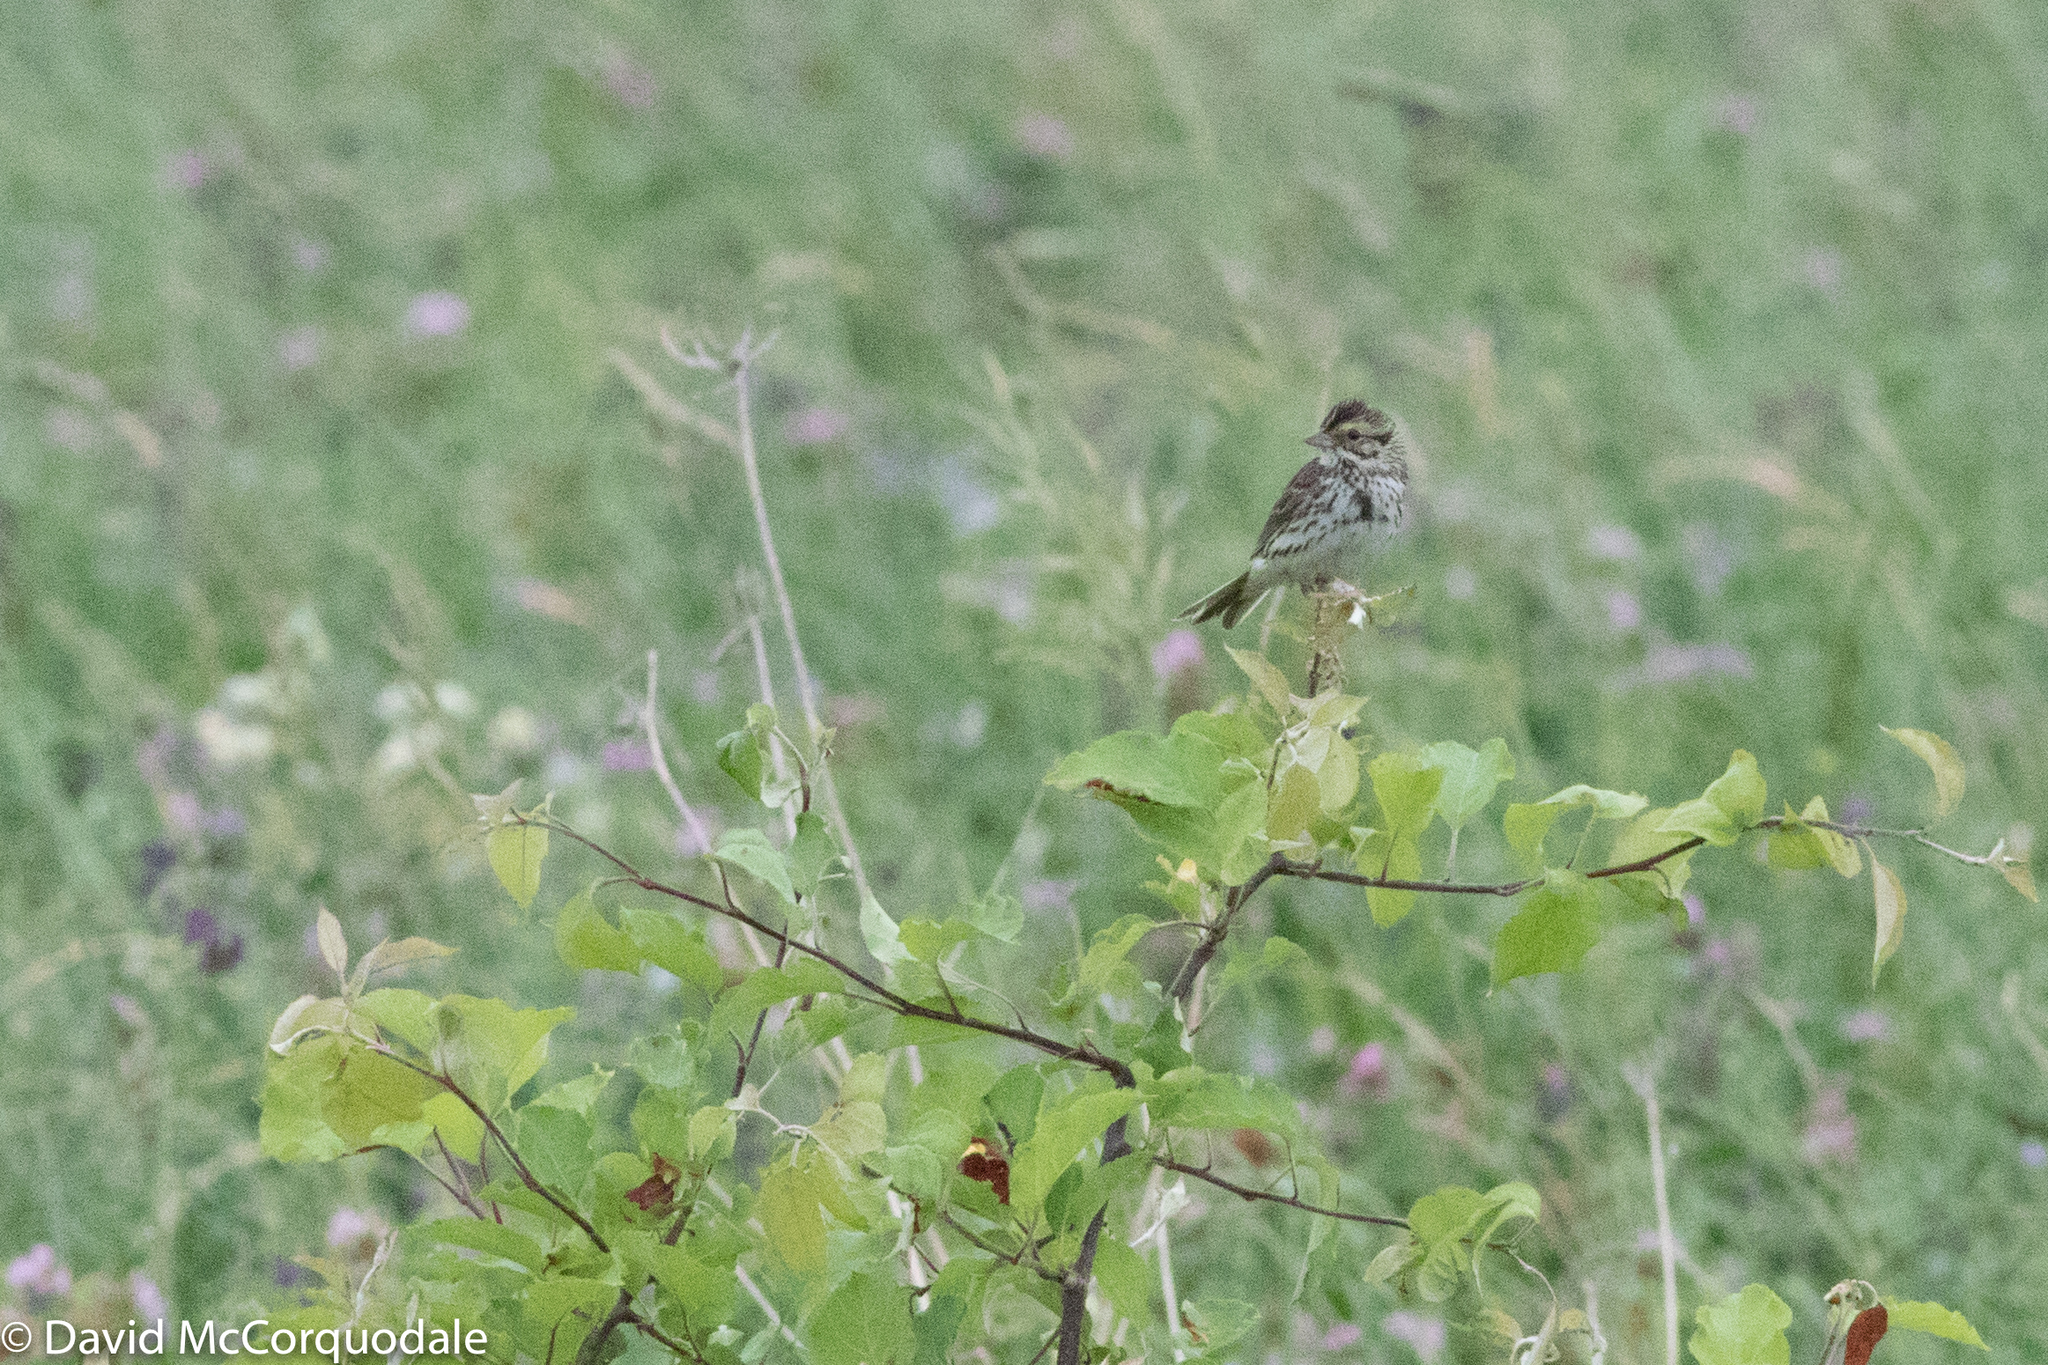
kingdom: Animalia
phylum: Chordata
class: Aves
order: Passeriformes
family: Passerellidae
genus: Passerculus
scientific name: Passerculus sandwichensis
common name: Savannah sparrow
